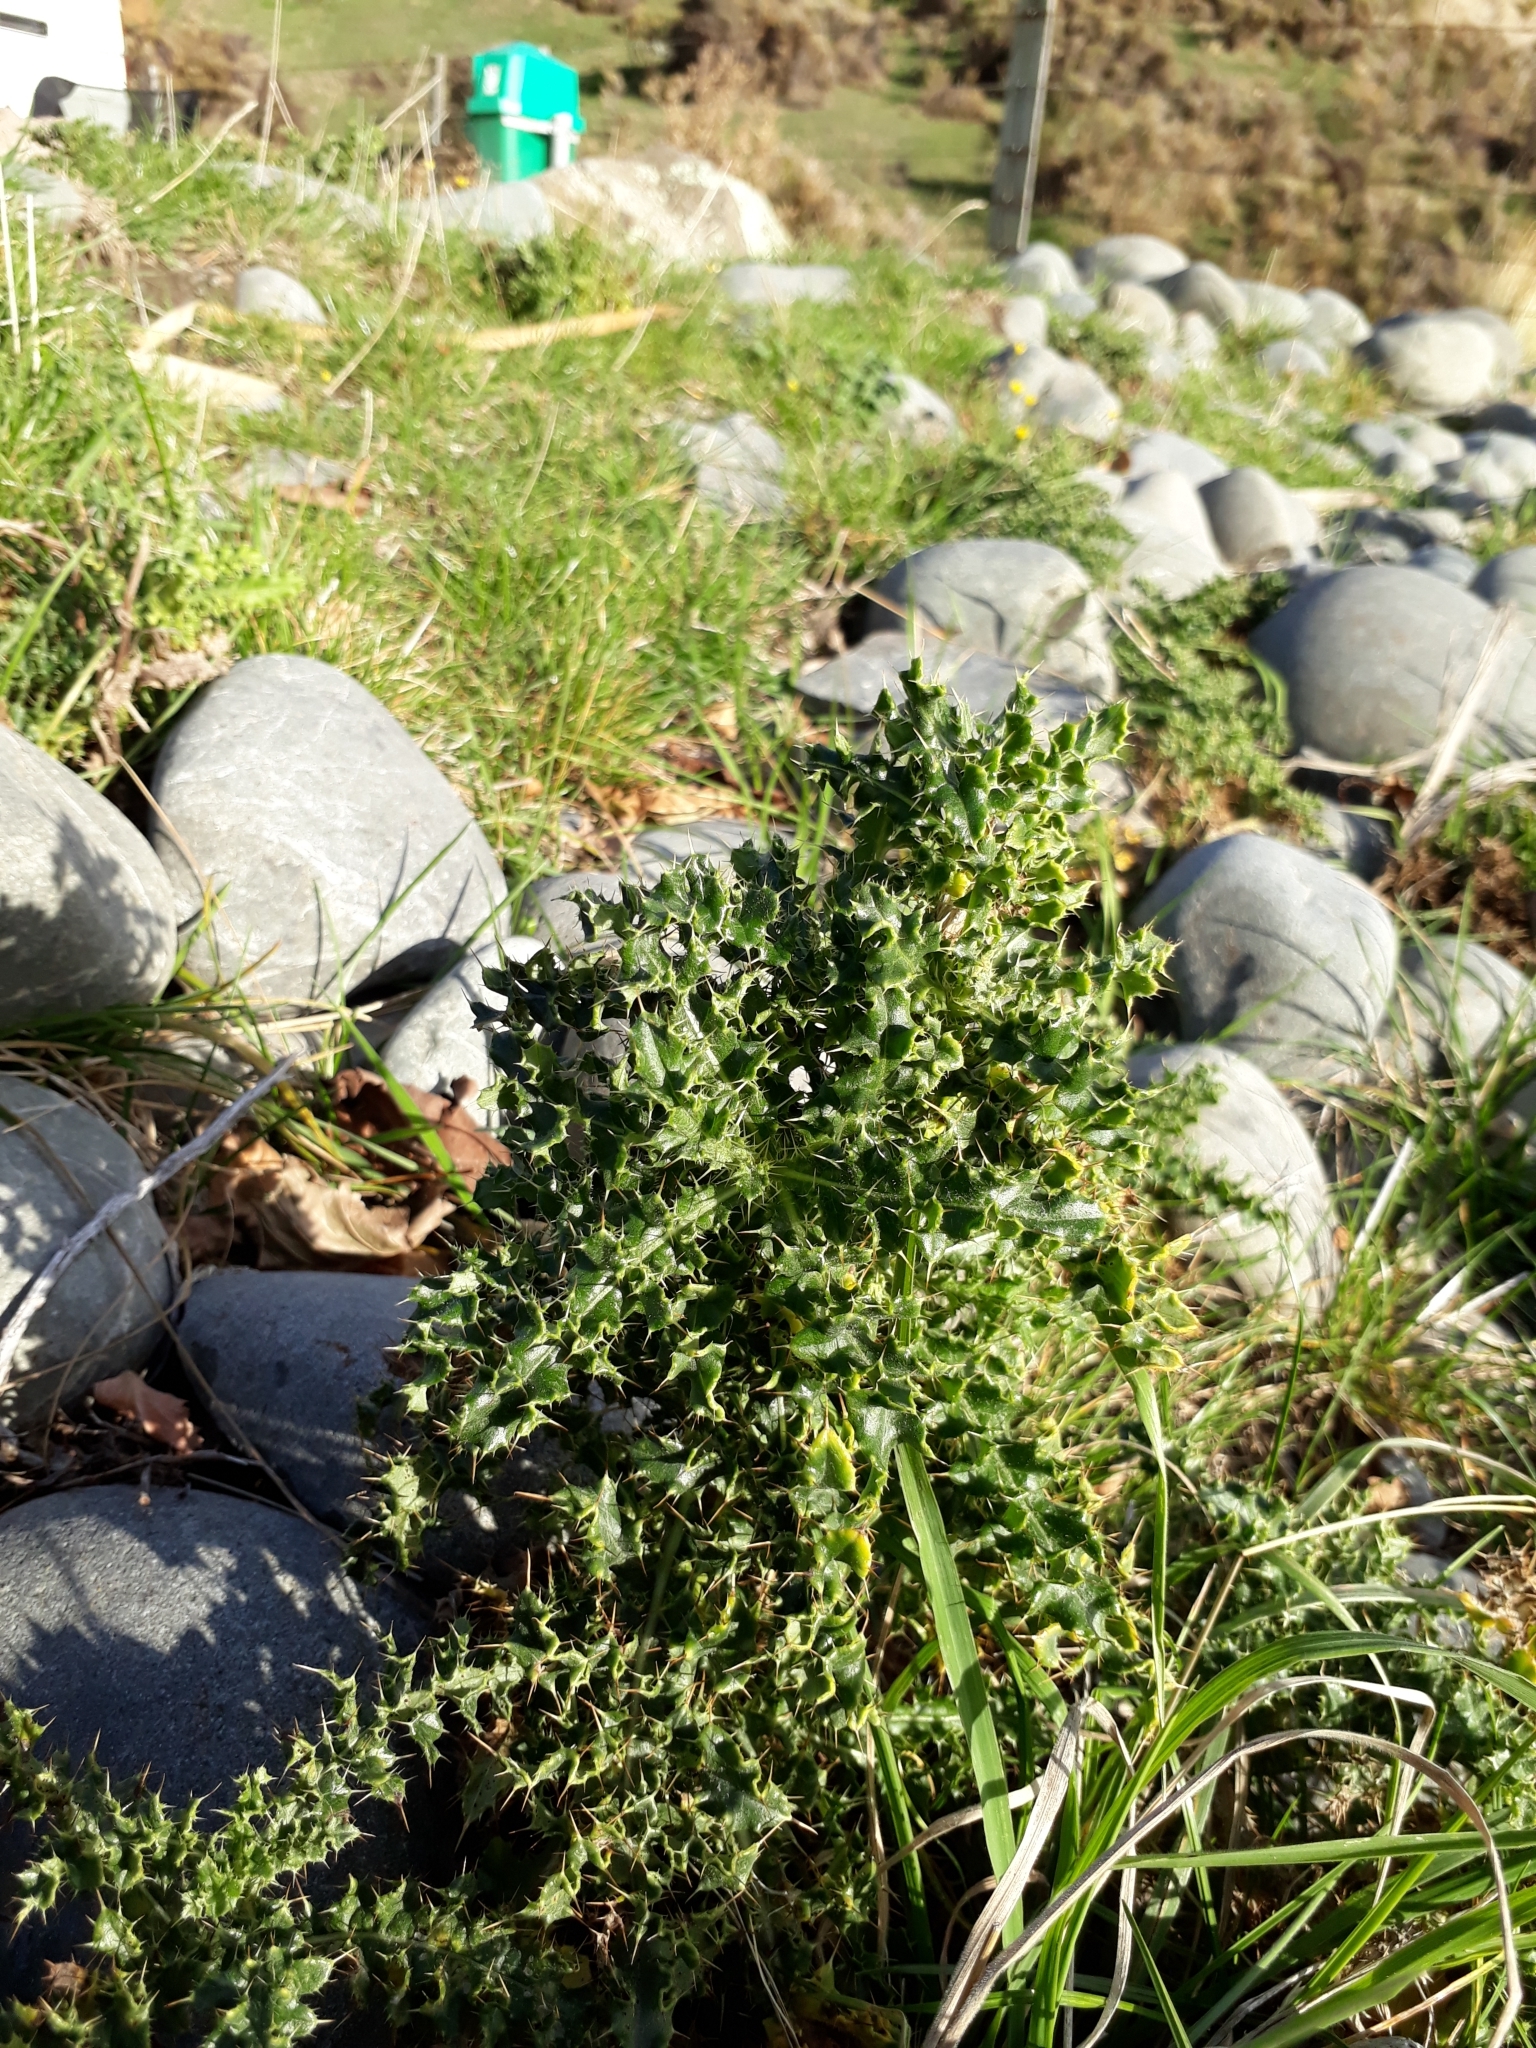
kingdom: Plantae
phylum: Tracheophyta
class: Magnoliopsida
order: Asterales
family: Asteraceae
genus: Cirsium
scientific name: Cirsium arvense
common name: Creeping thistle
